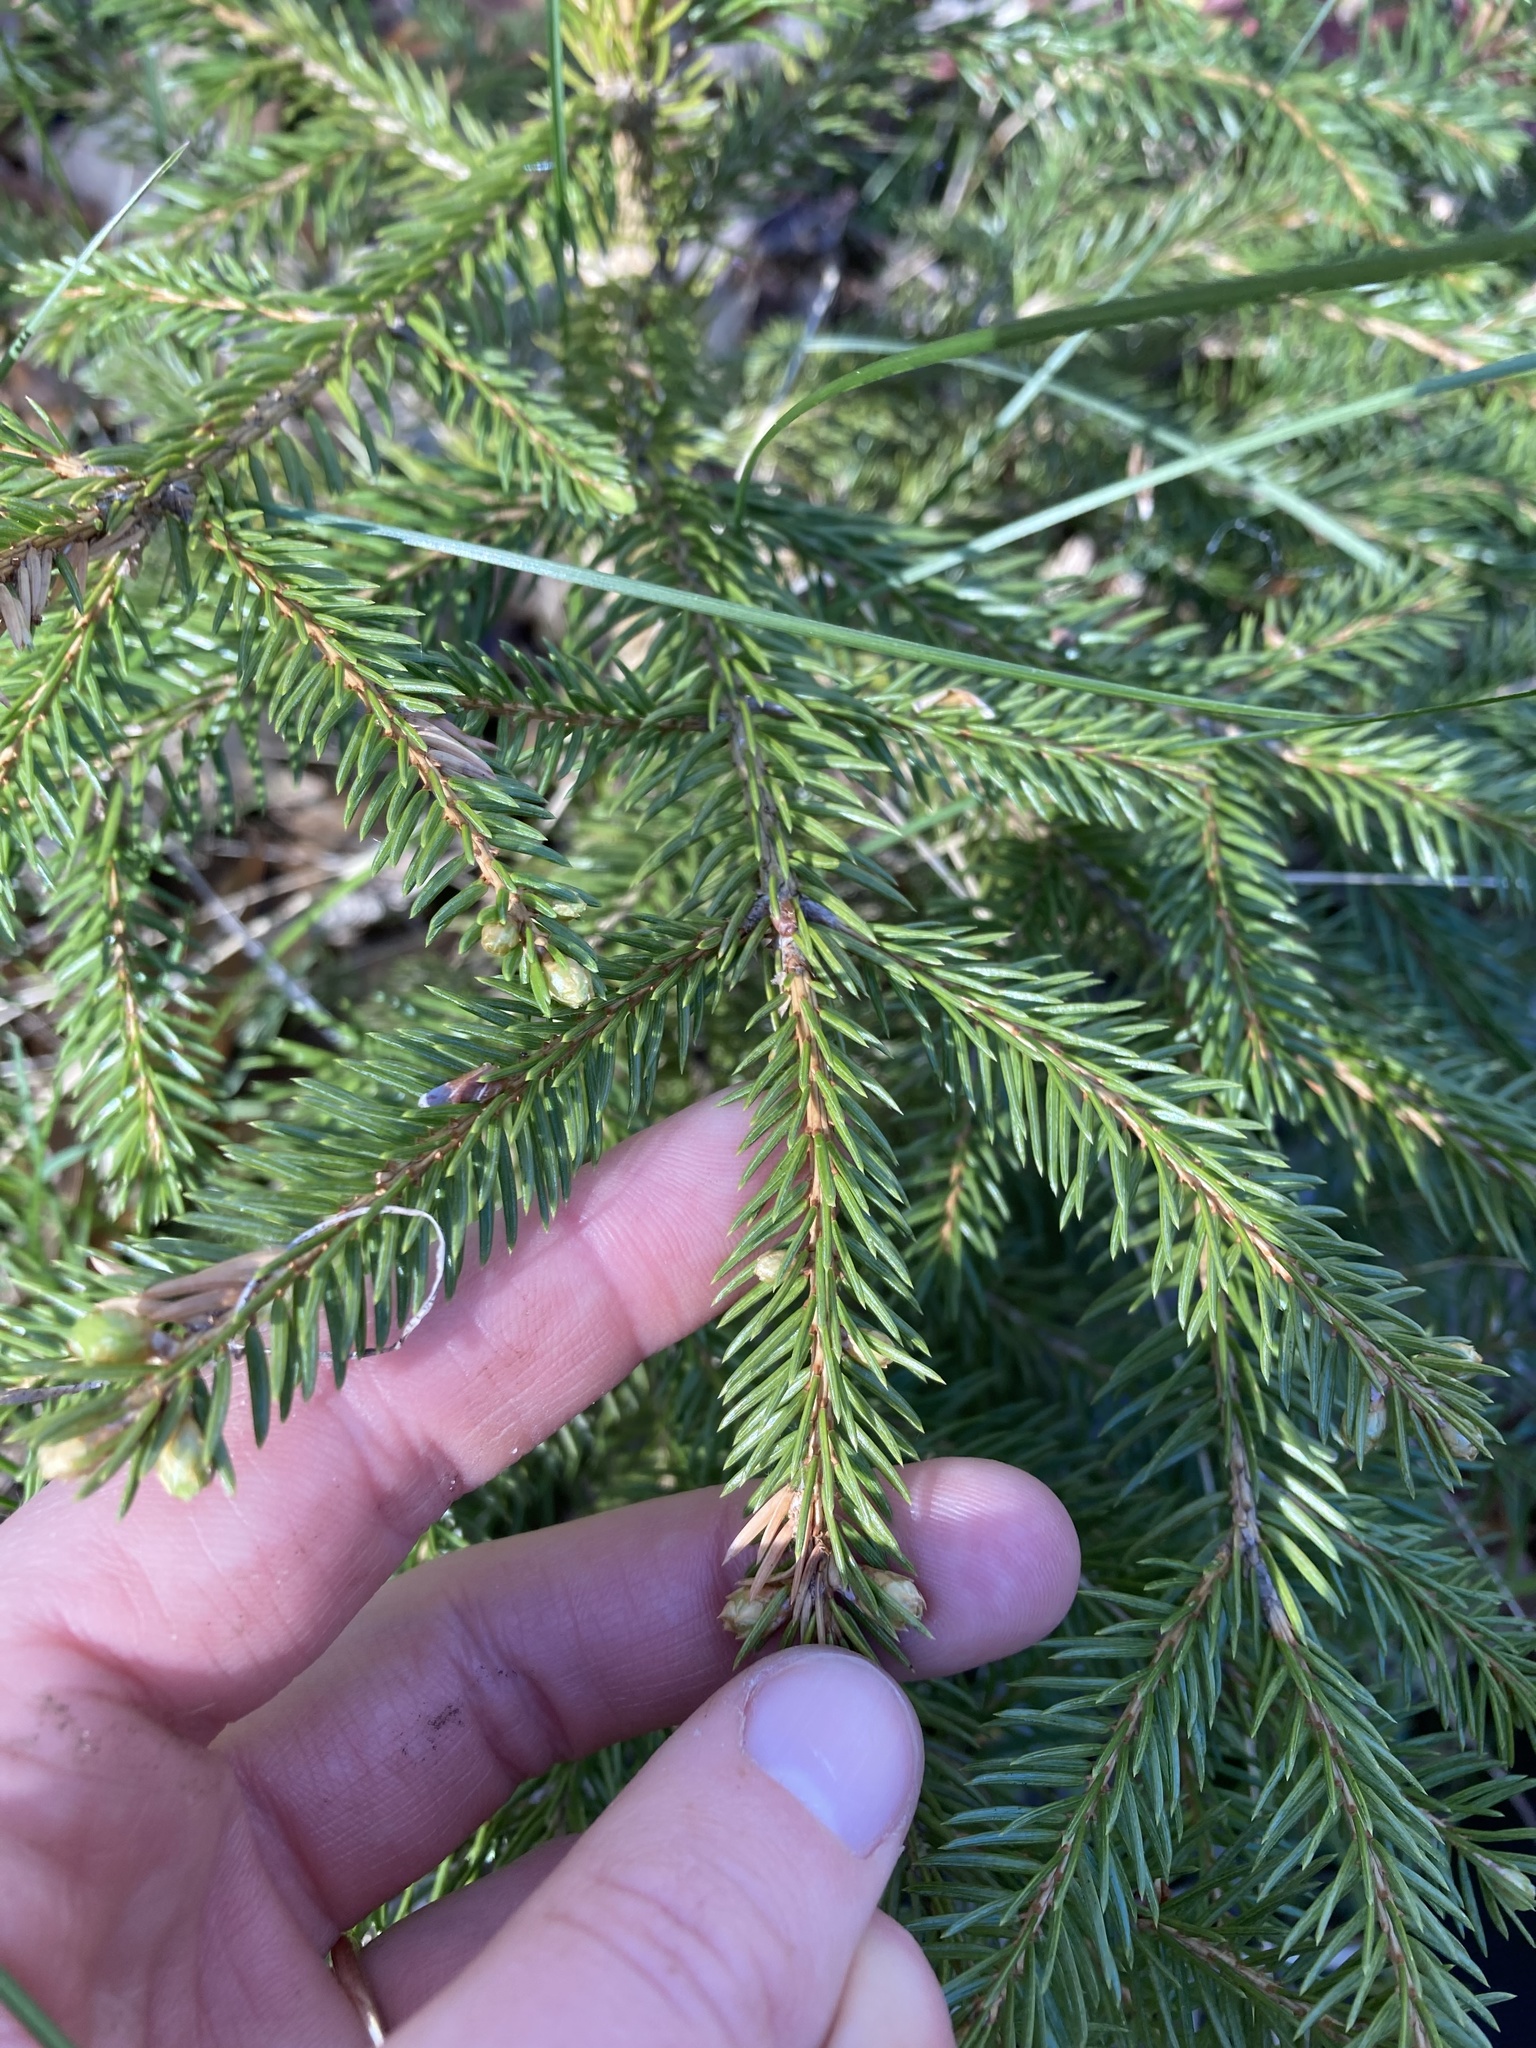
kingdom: Plantae
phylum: Tracheophyta
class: Pinopsida
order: Pinales
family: Pinaceae
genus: Picea
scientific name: Picea abies
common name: Norway spruce
